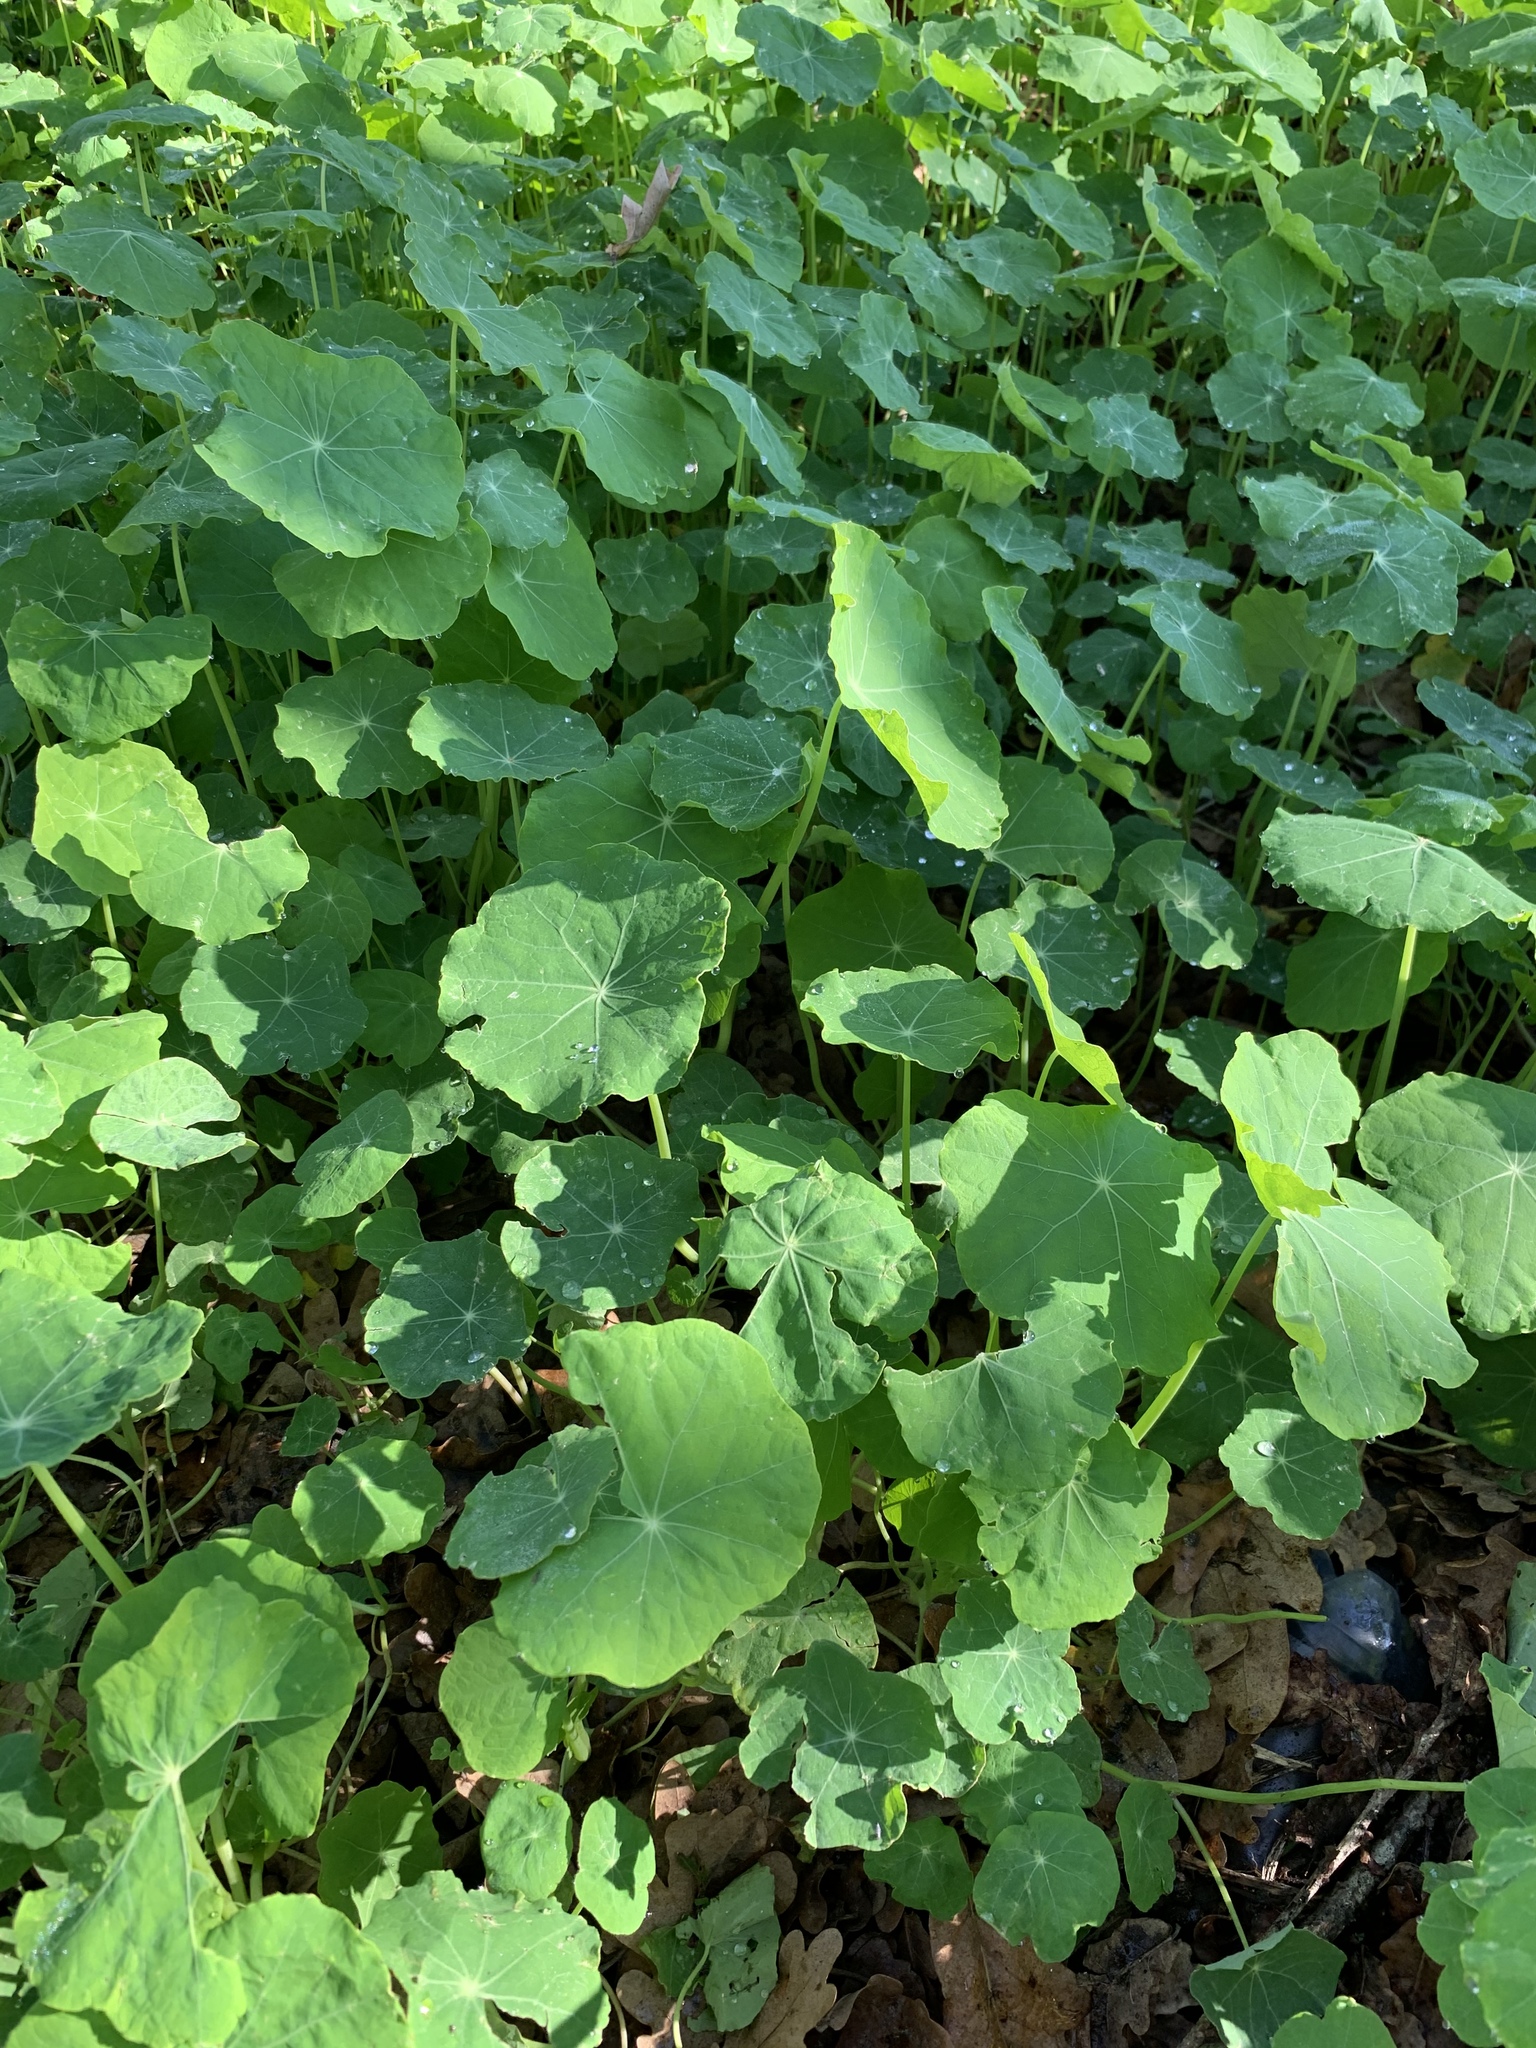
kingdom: Plantae
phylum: Tracheophyta
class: Magnoliopsida
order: Brassicales
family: Tropaeolaceae
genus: Tropaeolum
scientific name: Tropaeolum majus
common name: Nasturtium
